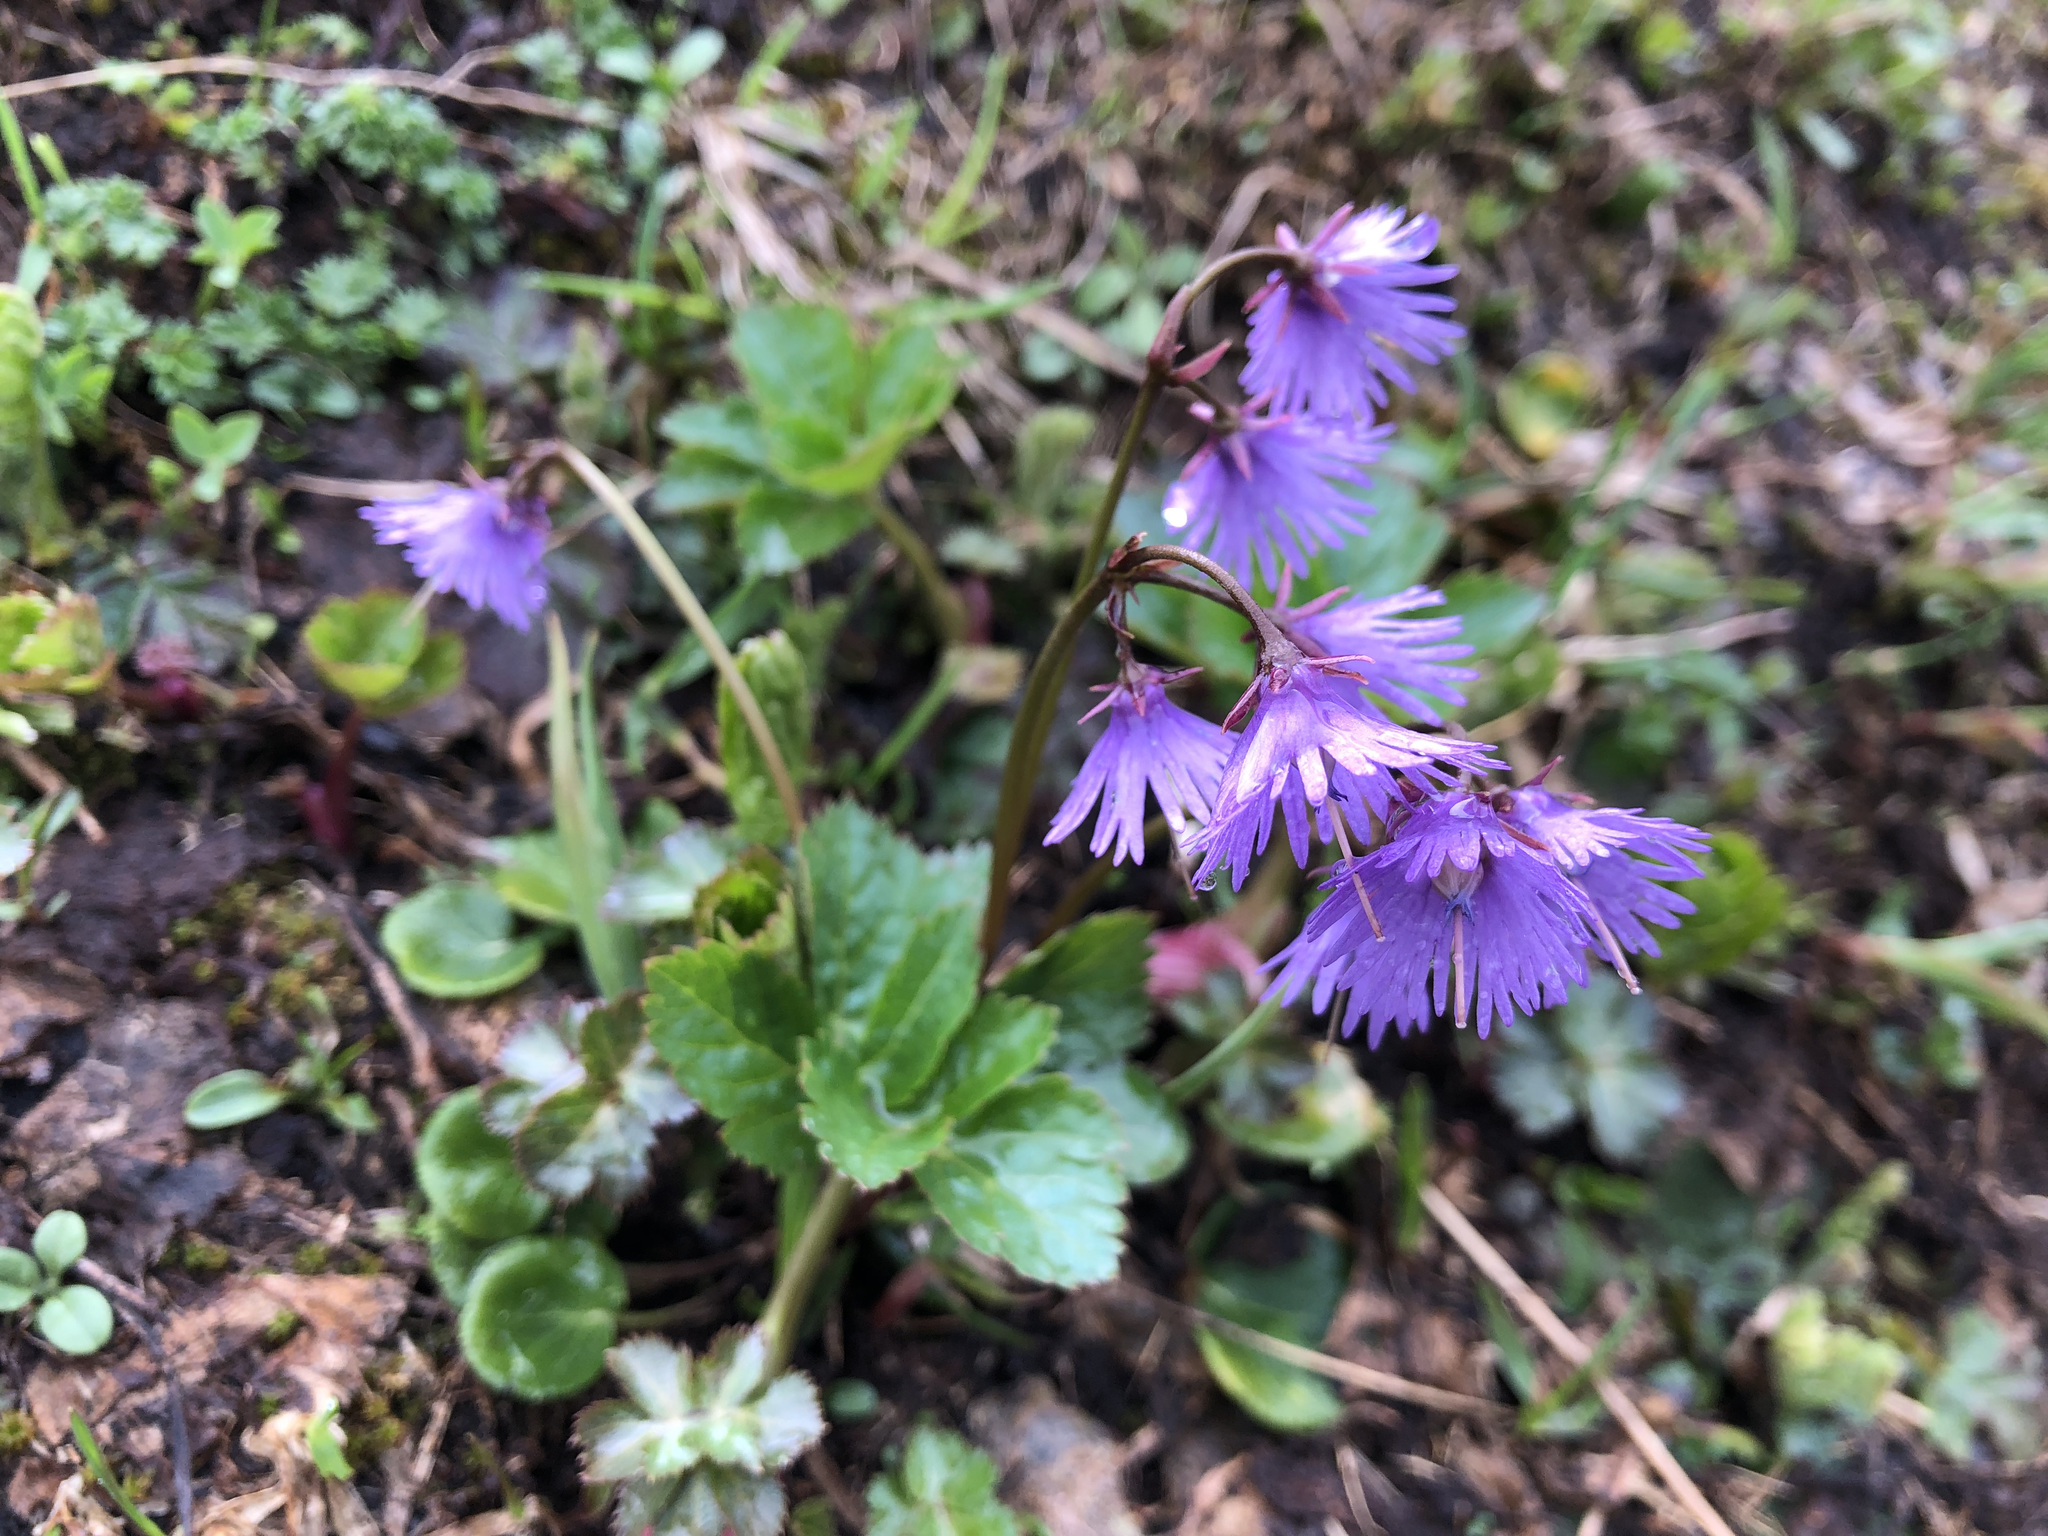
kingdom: Plantae
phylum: Tracheophyta
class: Magnoliopsida
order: Ericales
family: Primulaceae
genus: Soldanella
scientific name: Soldanella alpina
